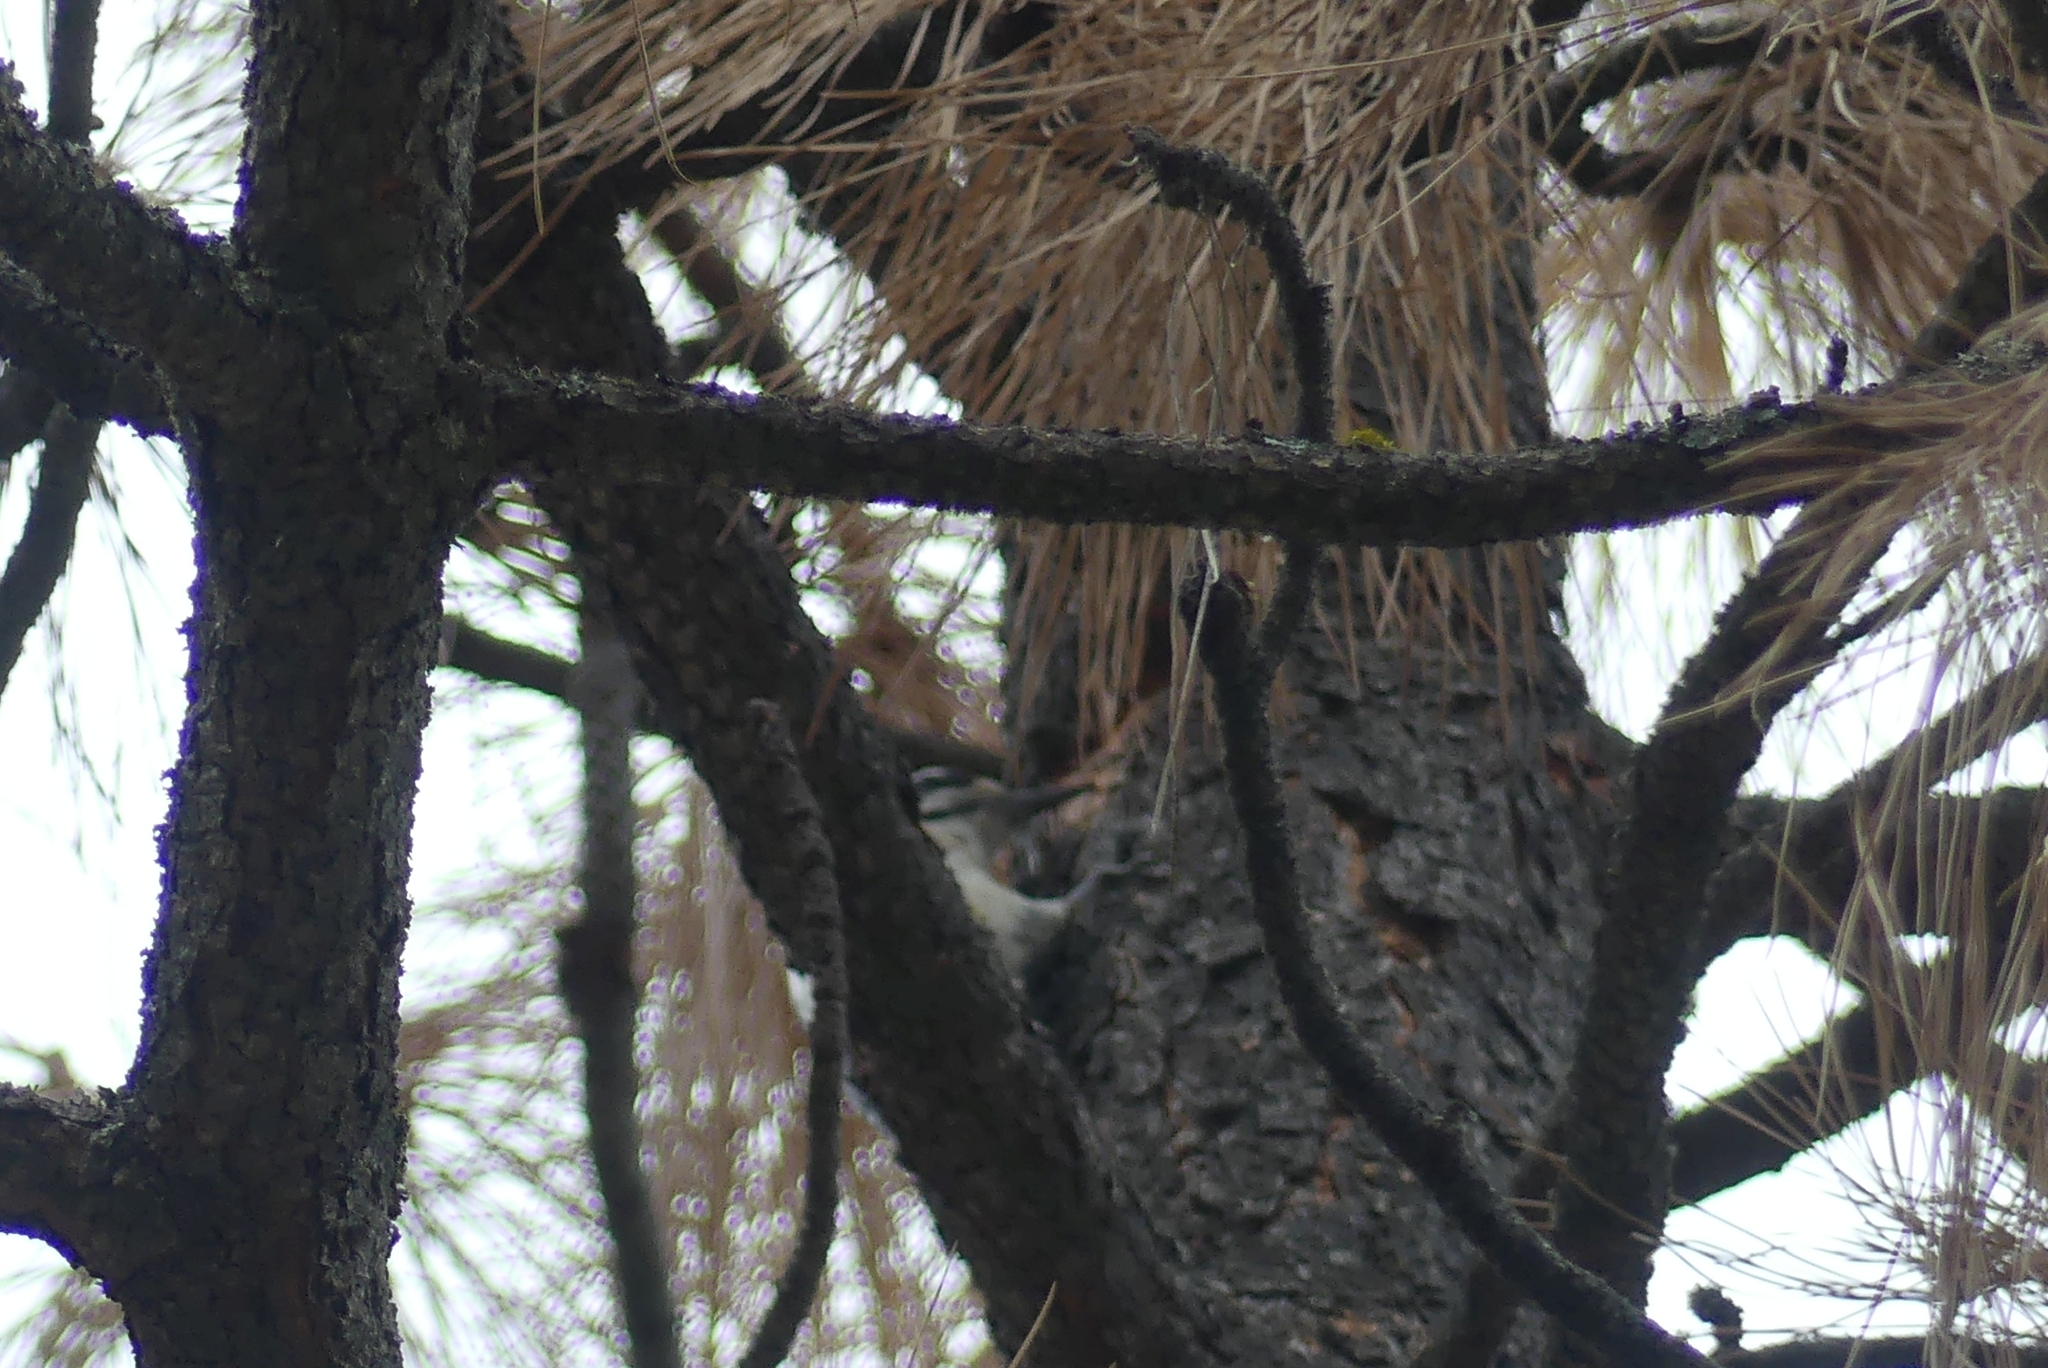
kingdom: Animalia
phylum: Chordata
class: Aves
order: Piciformes
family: Picidae
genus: Leuconotopicus
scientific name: Leuconotopicus villosus
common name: Hairy woodpecker
